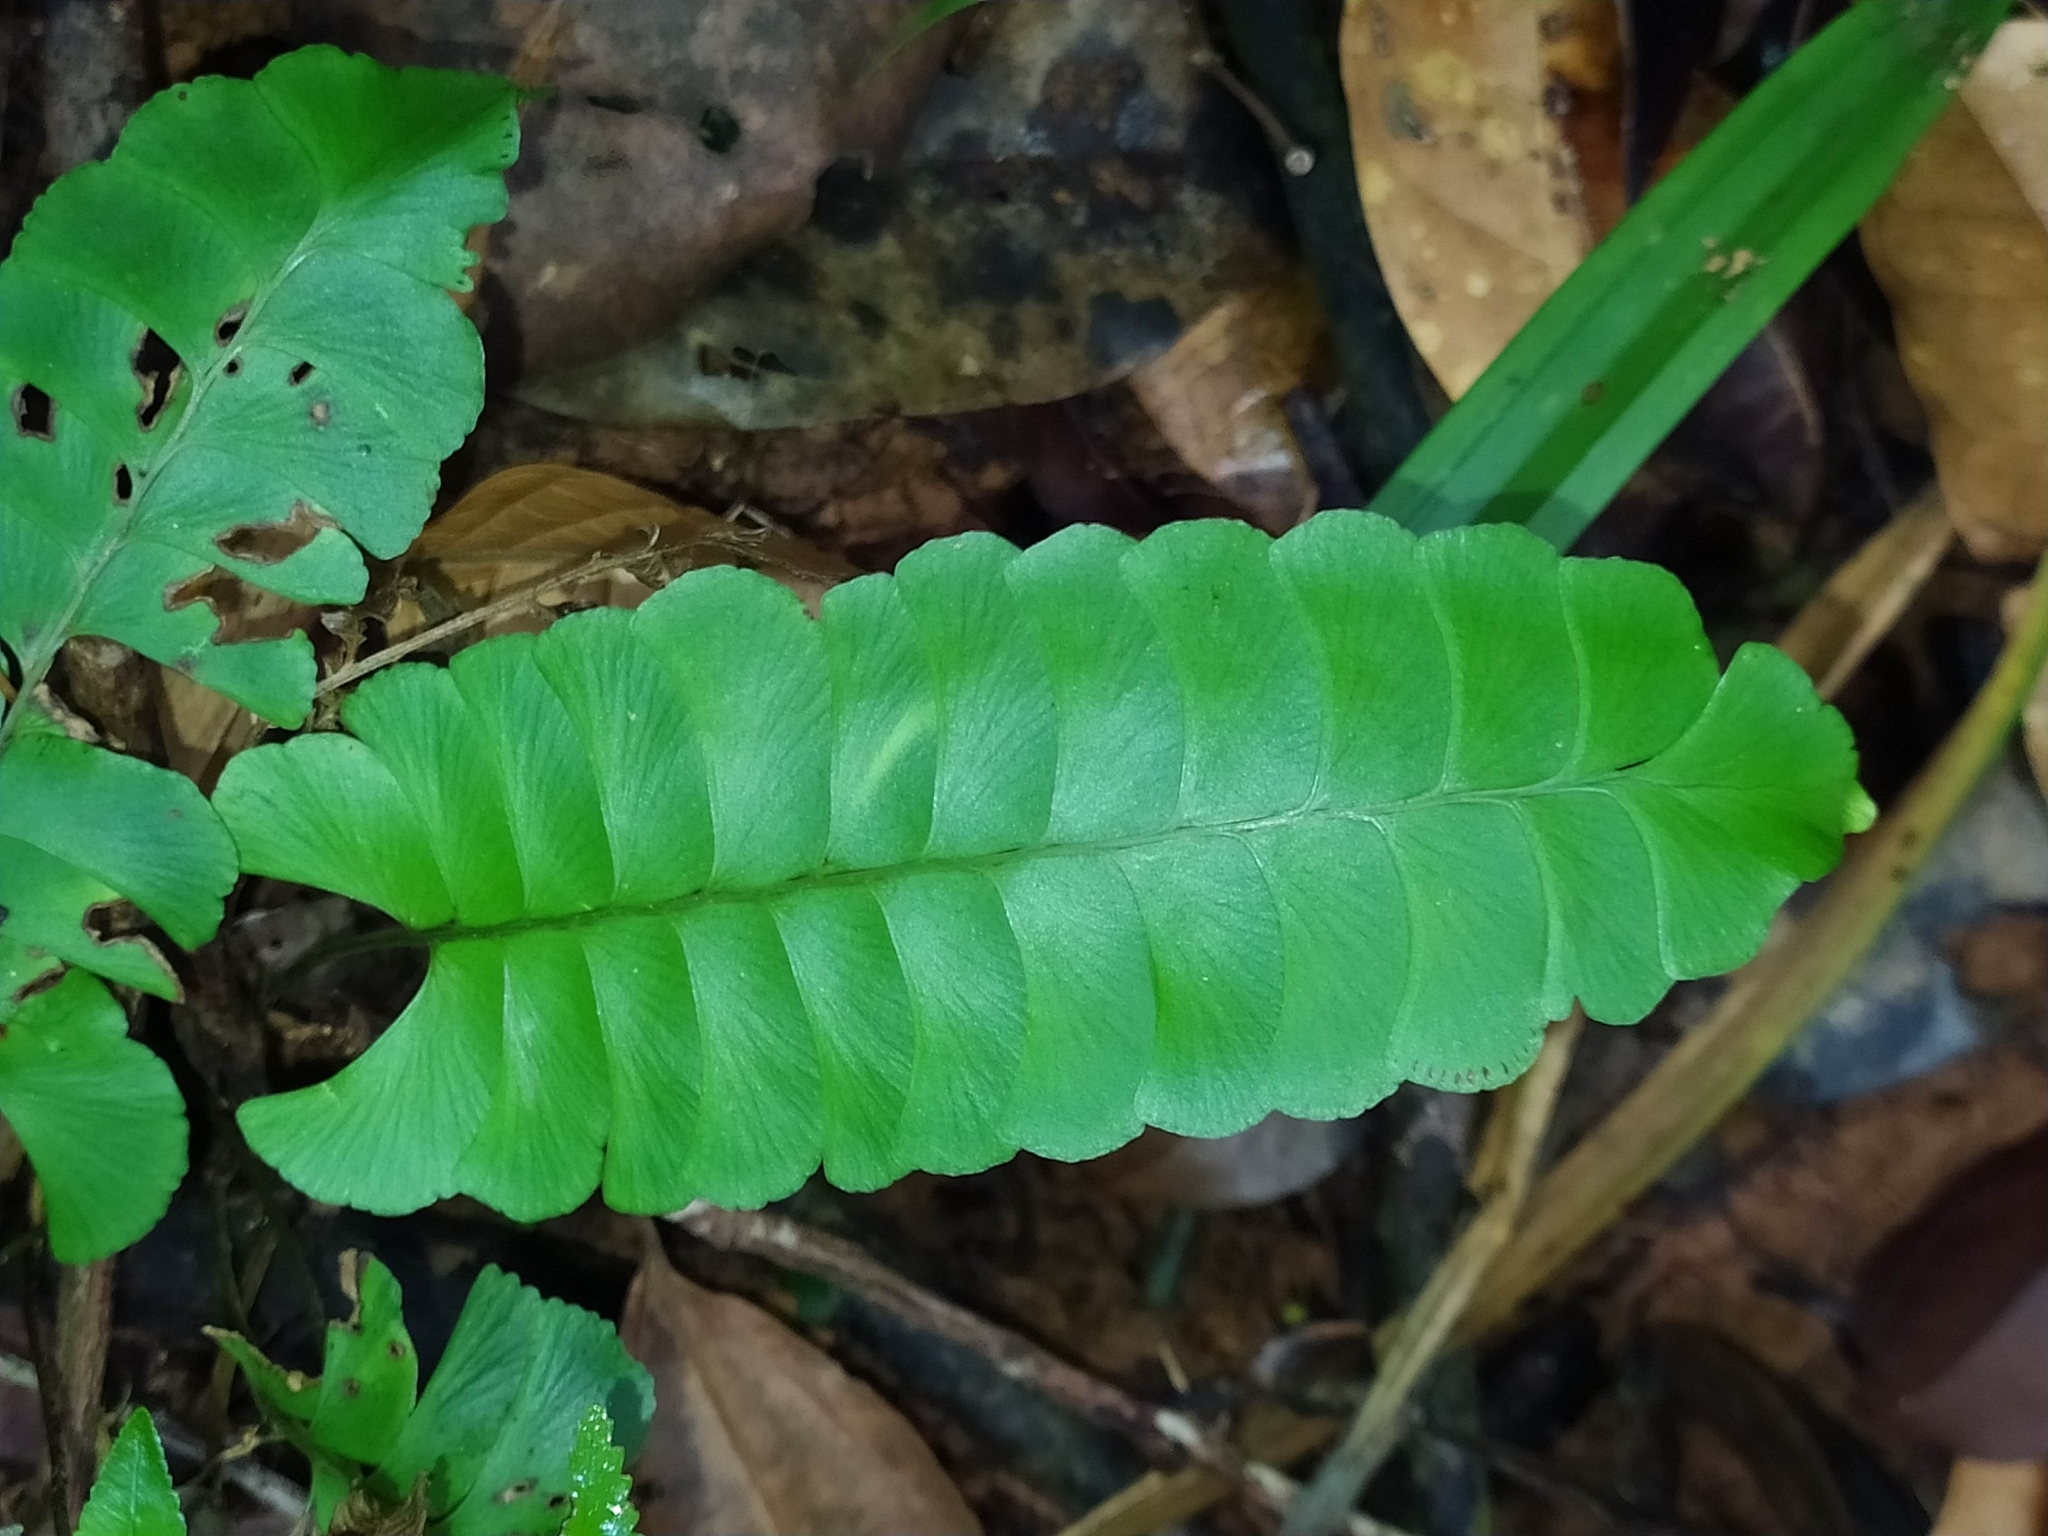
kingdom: Plantae
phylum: Tracheophyta
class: Polypodiopsida
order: Polypodiales
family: Lindsaeaceae
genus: Lindsaea
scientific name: Lindsaea lancea
